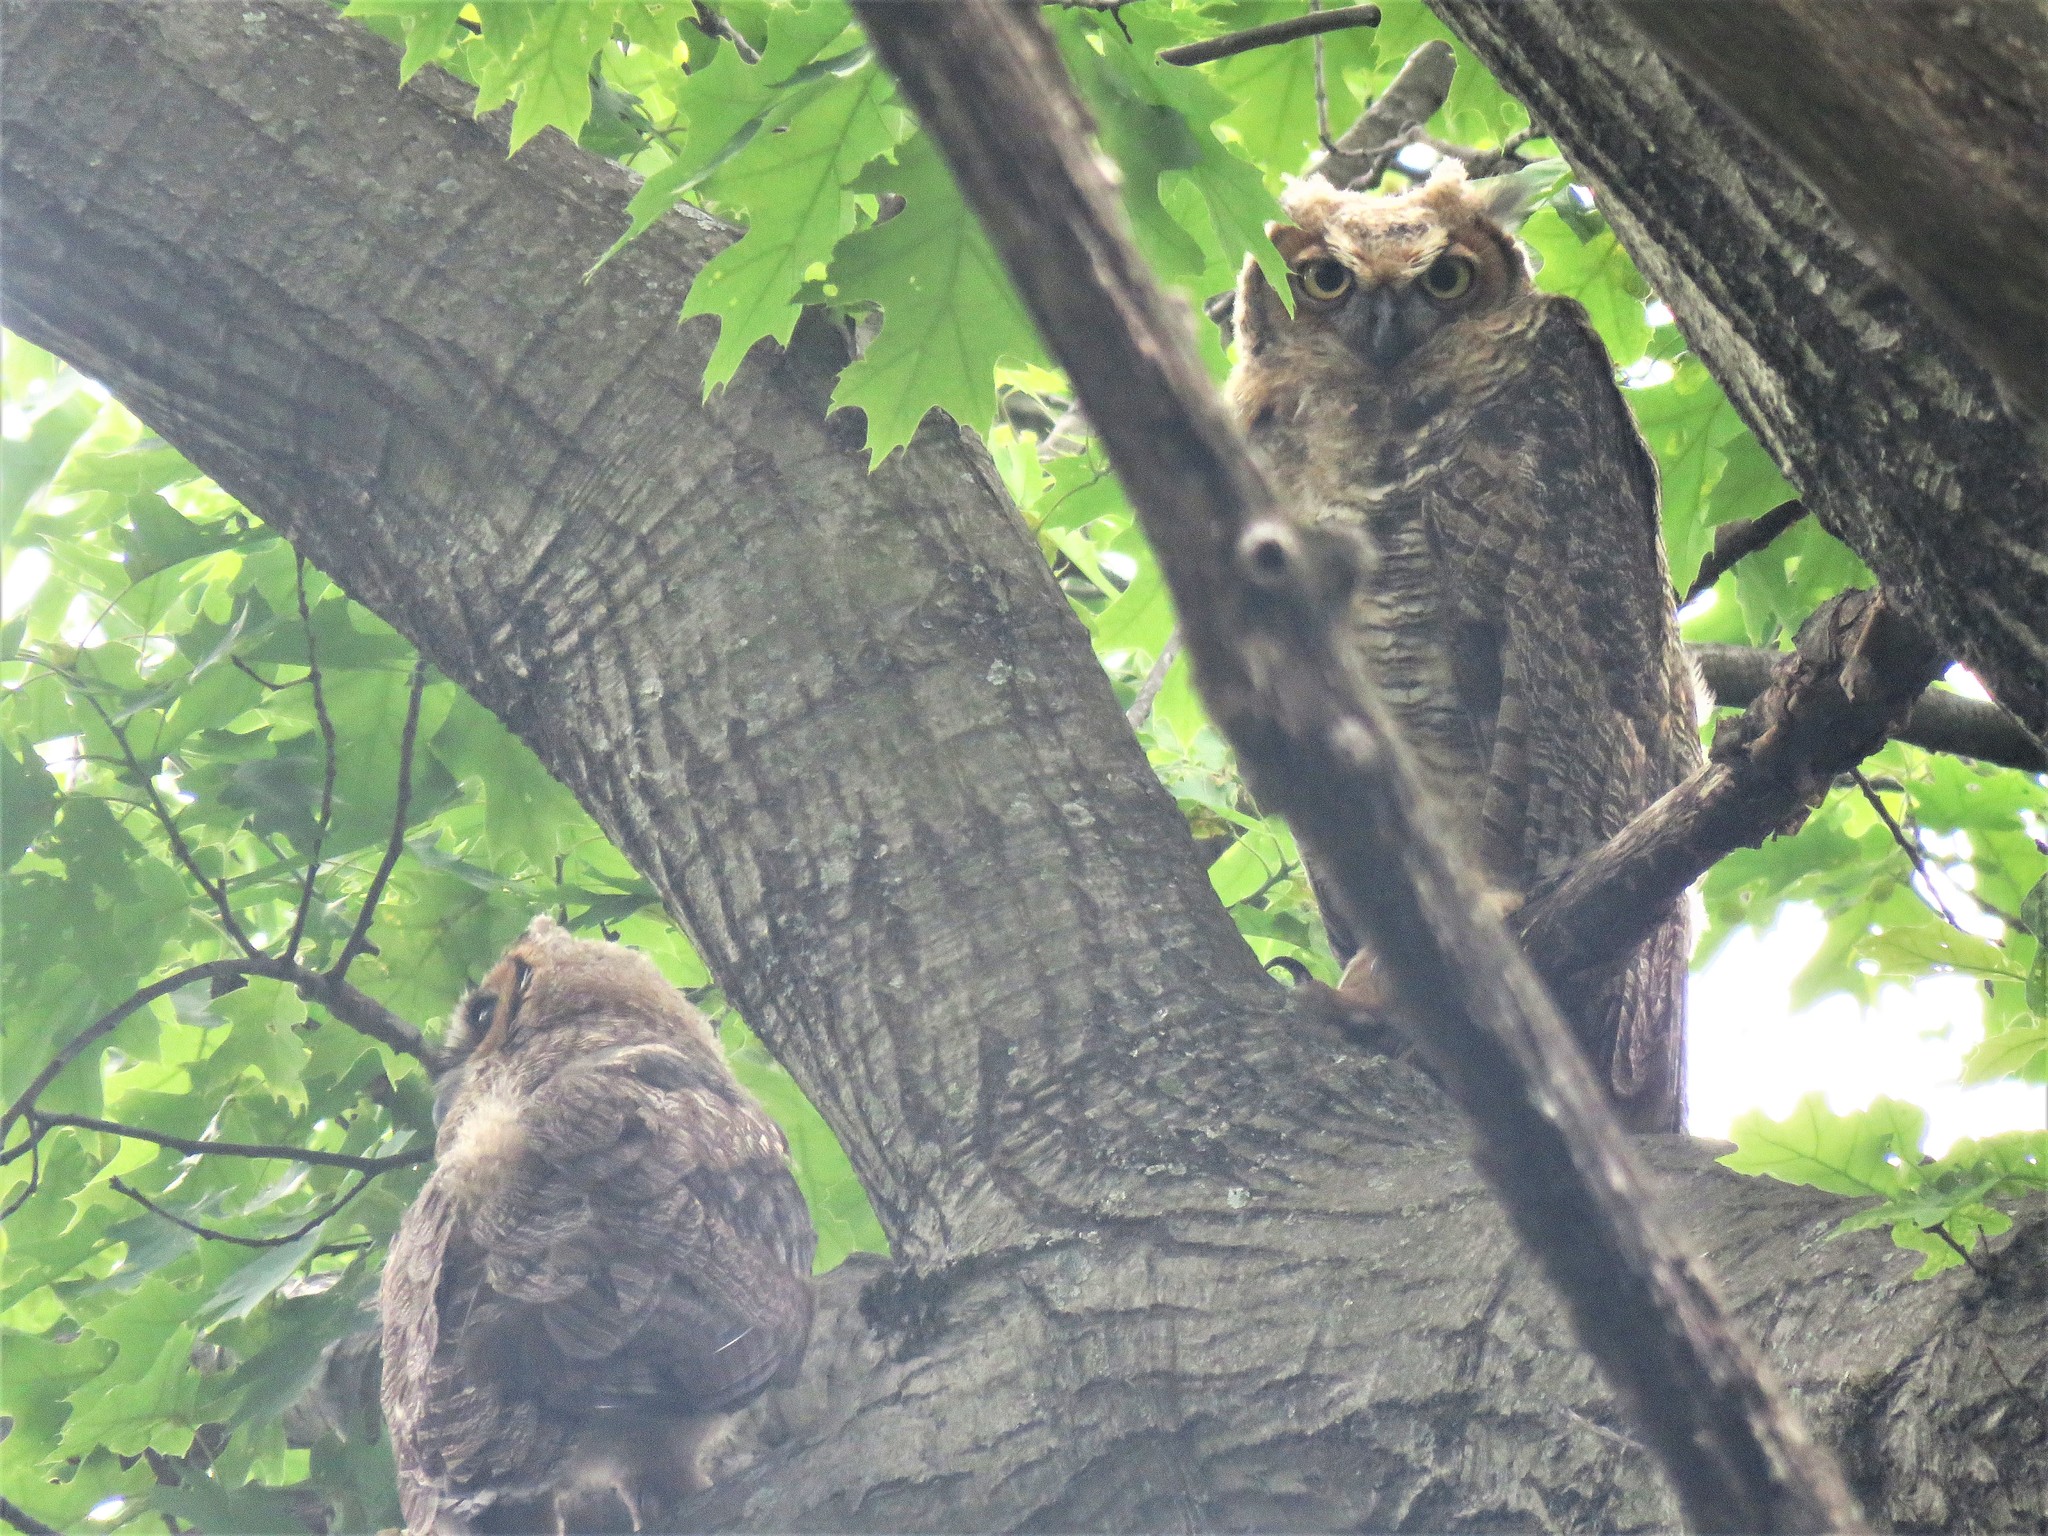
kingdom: Animalia
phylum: Chordata
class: Aves
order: Strigiformes
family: Strigidae
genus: Bubo
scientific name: Bubo virginianus
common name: Great horned owl
